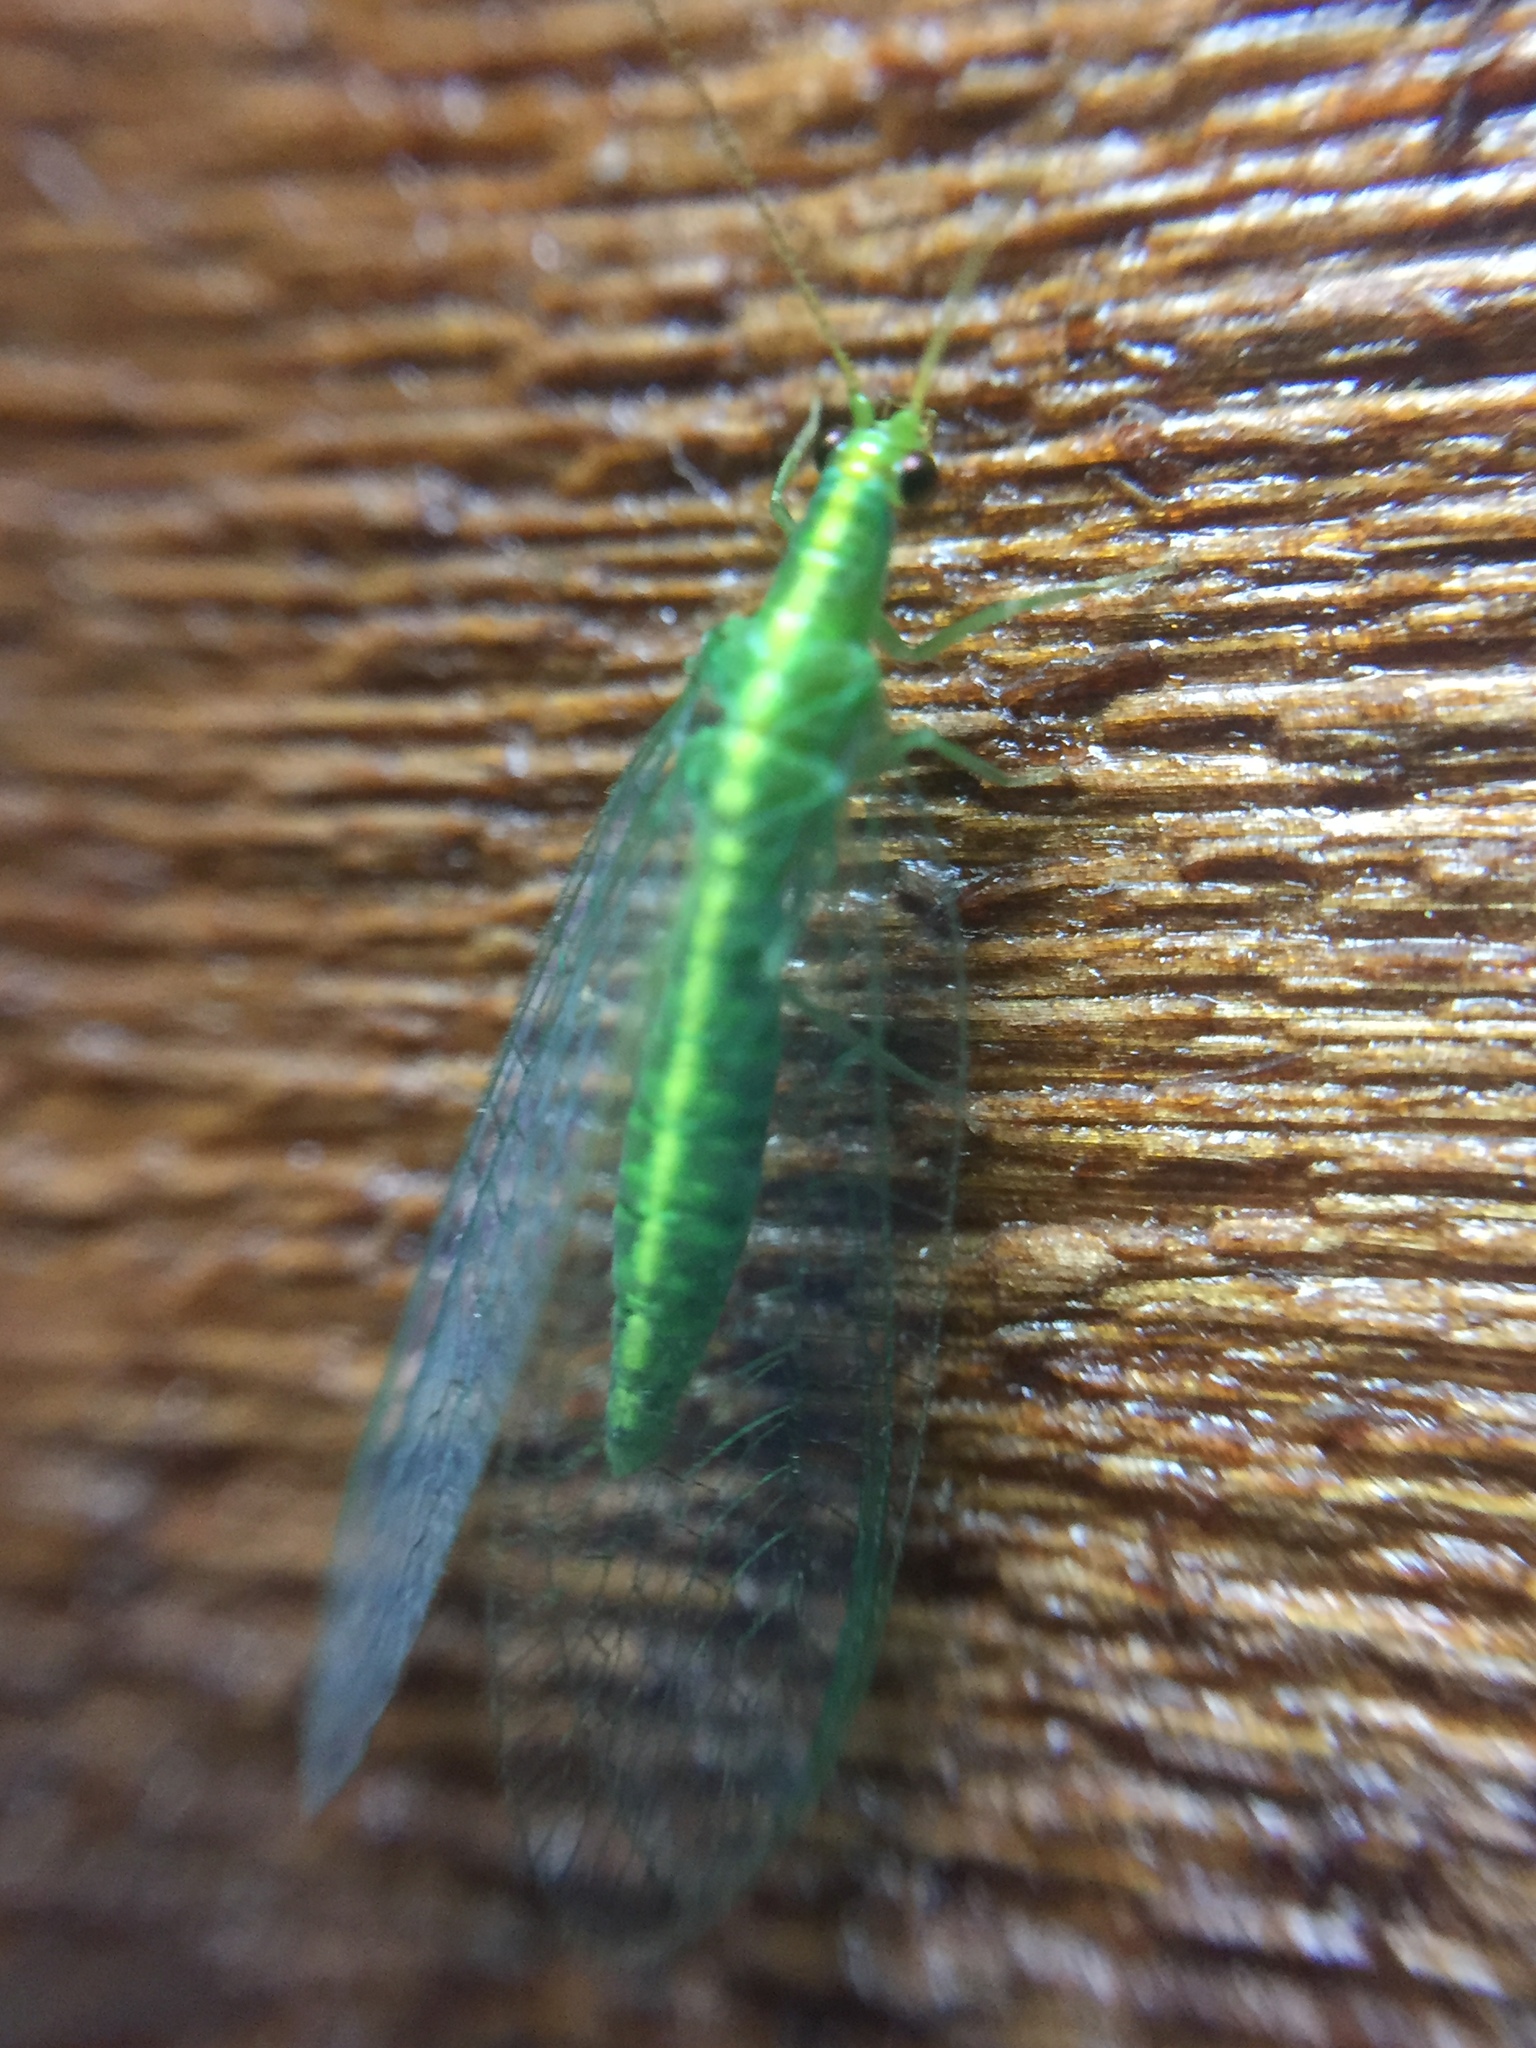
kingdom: Animalia
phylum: Arthropoda
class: Insecta
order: Neuroptera
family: Chrysopidae
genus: Mallada
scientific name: Mallada basalis
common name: Green lacewing
